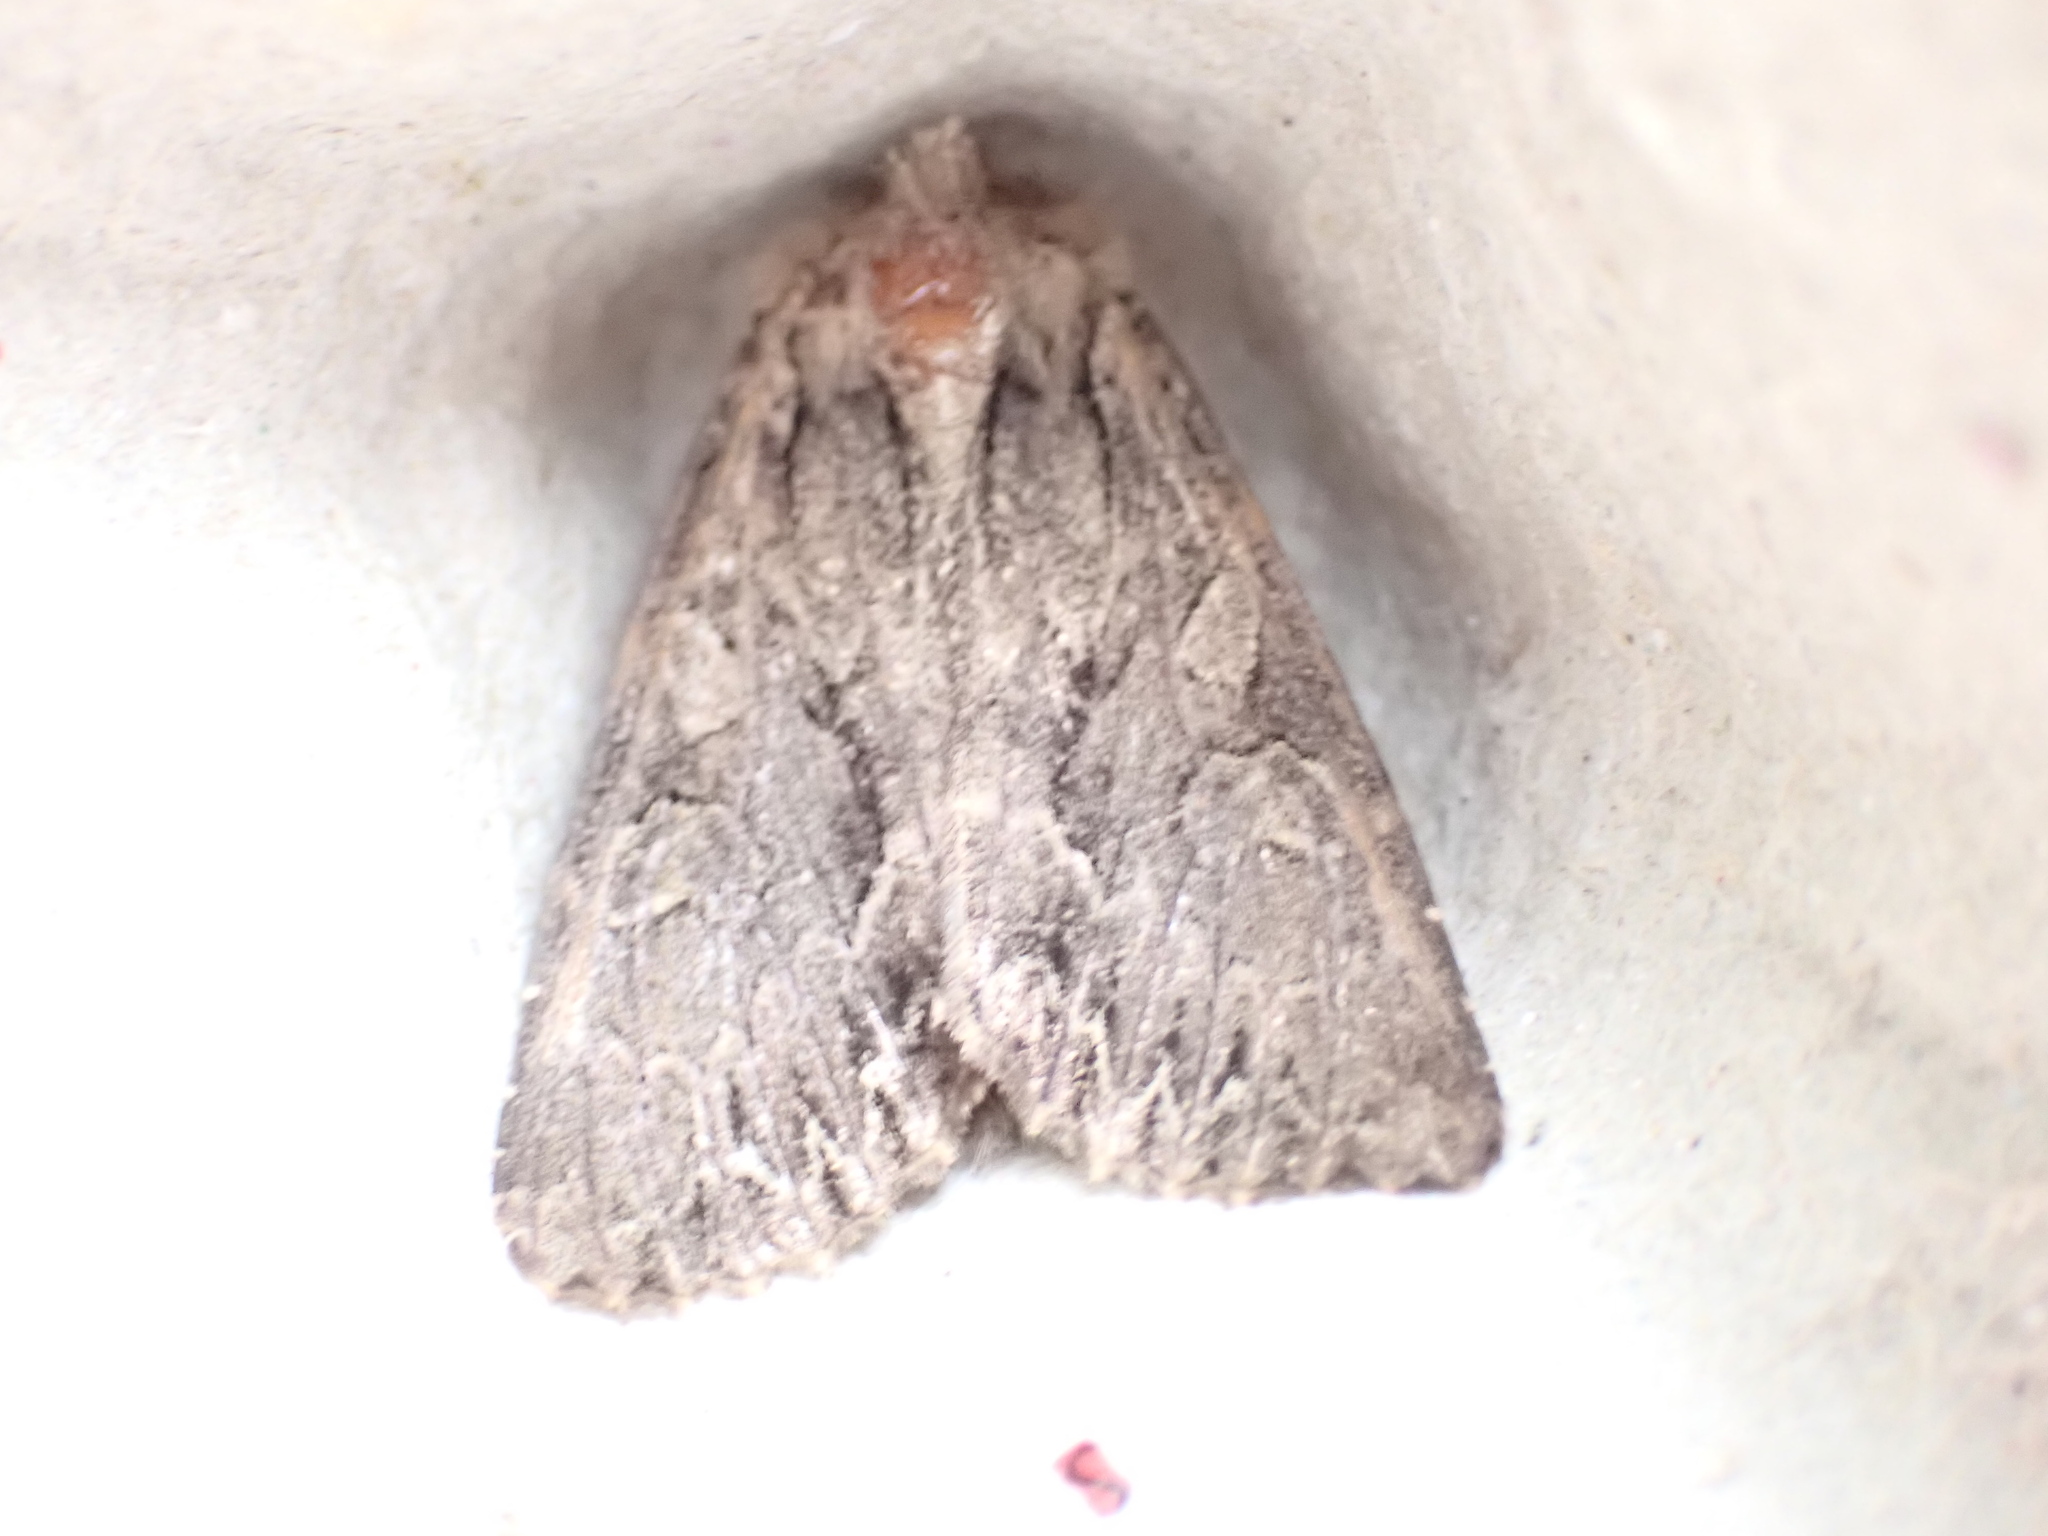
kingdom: Animalia
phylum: Arthropoda
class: Insecta
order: Lepidoptera
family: Noctuidae
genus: Apamea
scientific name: Apamea monoglypha
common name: Dark arches
